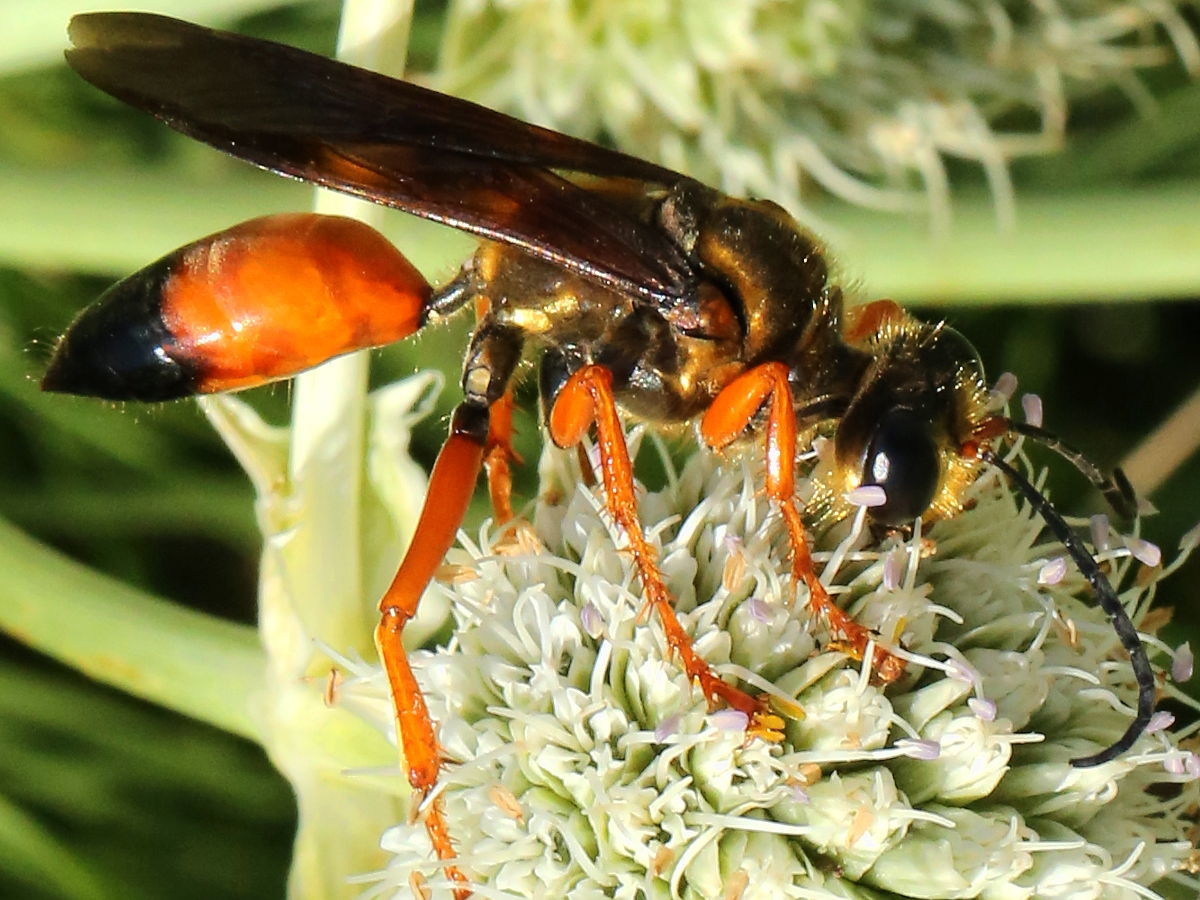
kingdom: Animalia
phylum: Arthropoda
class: Insecta
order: Hymenoptera
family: Sphecidae
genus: Sphex
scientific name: Sphex ichneumoneus
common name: Great golden digger wasp
